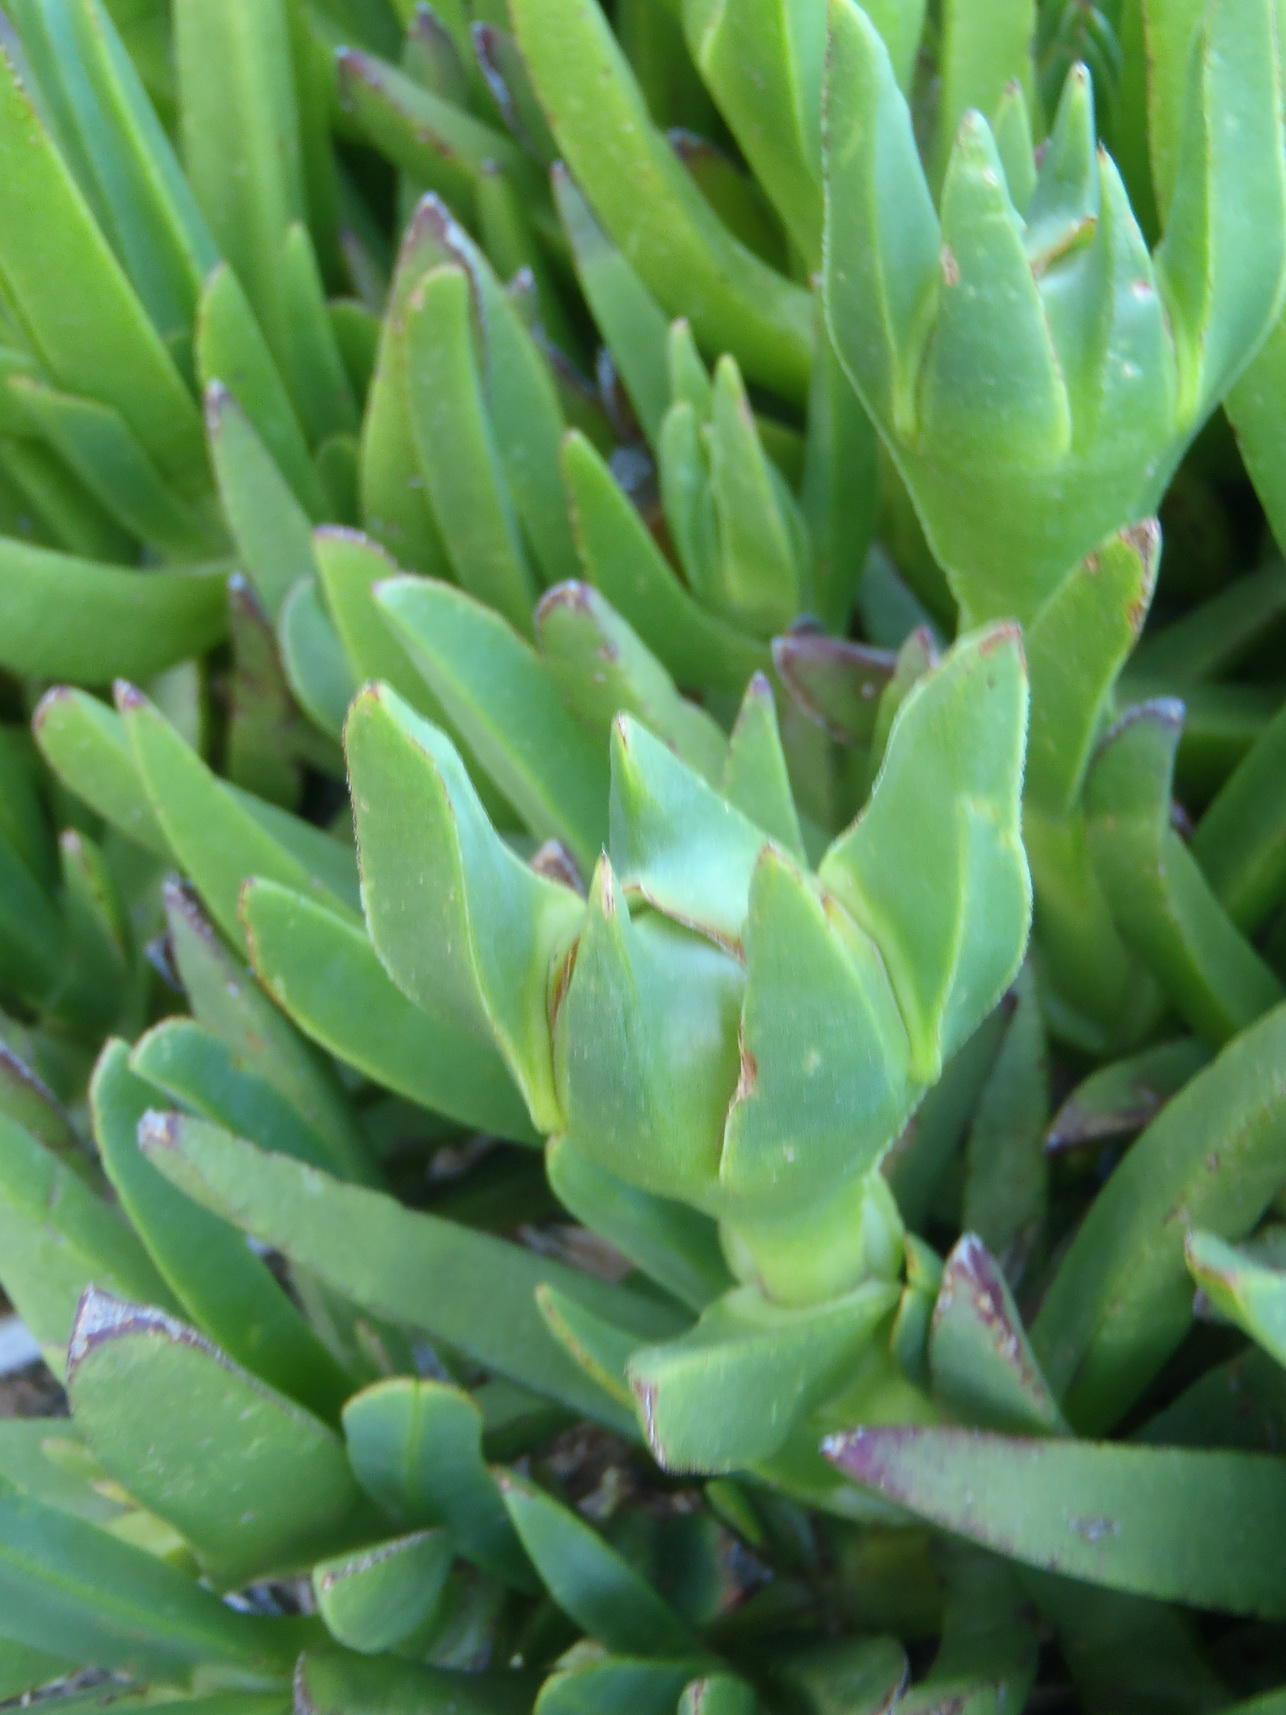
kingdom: Plantae
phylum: Tracheophyta
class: Magnoliopsida
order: Caryophyllales
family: Aizoaceae
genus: Carpobrotus
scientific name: Carpobrotus edulis
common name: Hottentot-fig
